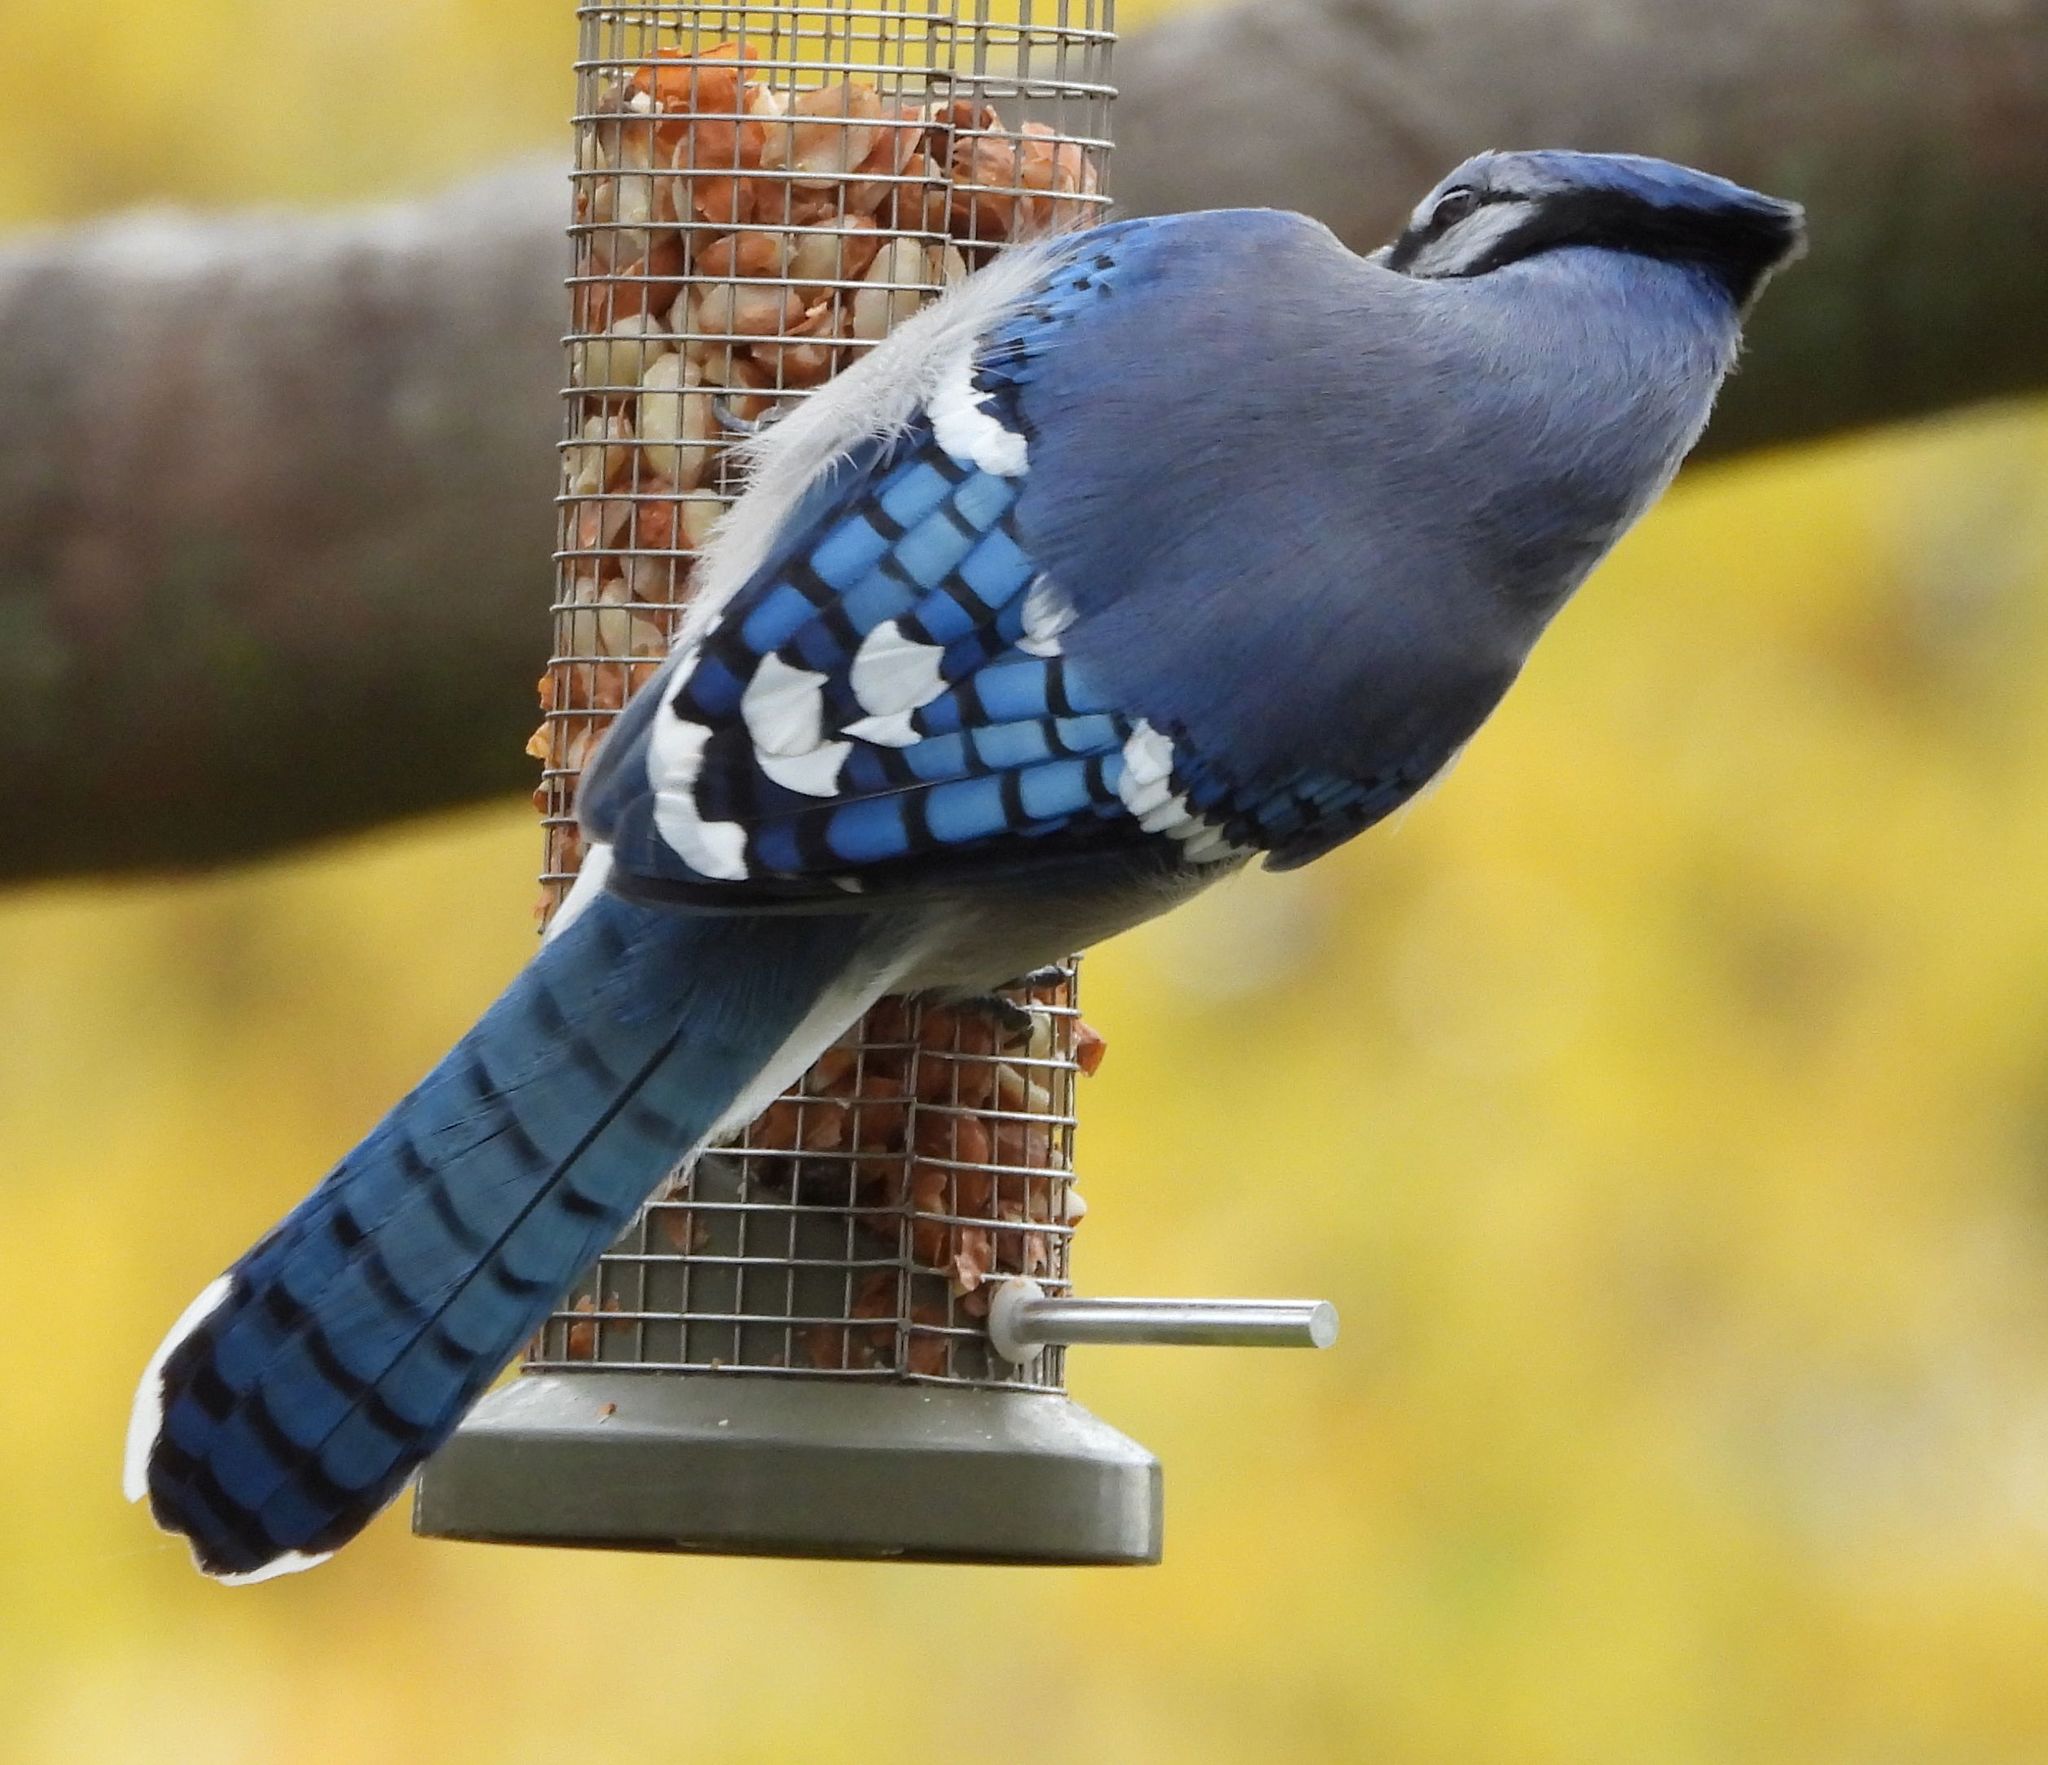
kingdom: Animalia
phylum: Chordata
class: Aves
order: Passeriformes
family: Corvidae
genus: Cyanocitta
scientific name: Cyanocitta cristata
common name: Blue jay
